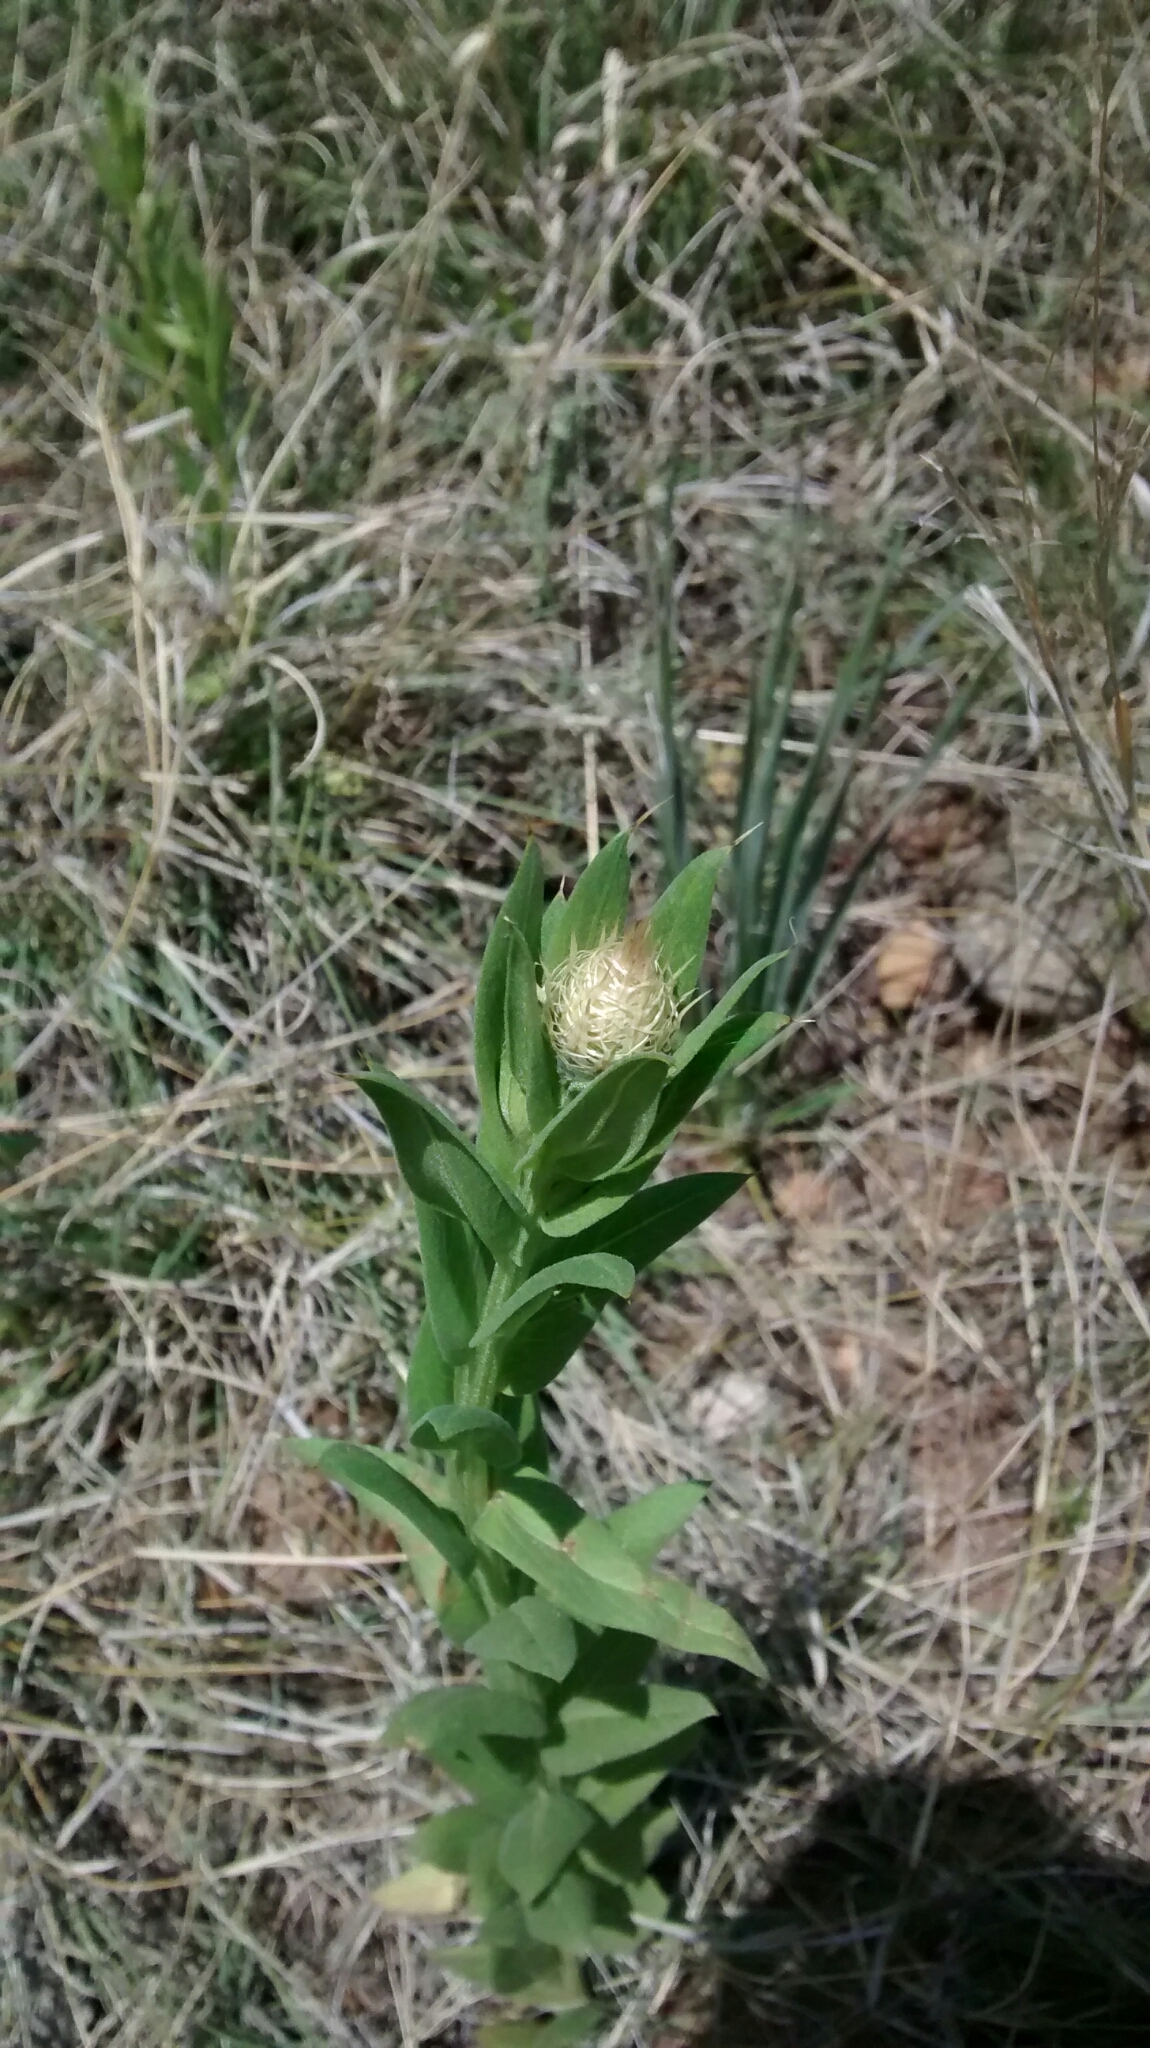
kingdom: Plantae
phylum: Tracheophyta
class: Magnoliopsida
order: Asterales
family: Asteraceae
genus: Plectocephalus
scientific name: Plectocephalus americanus
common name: American basket-flower
